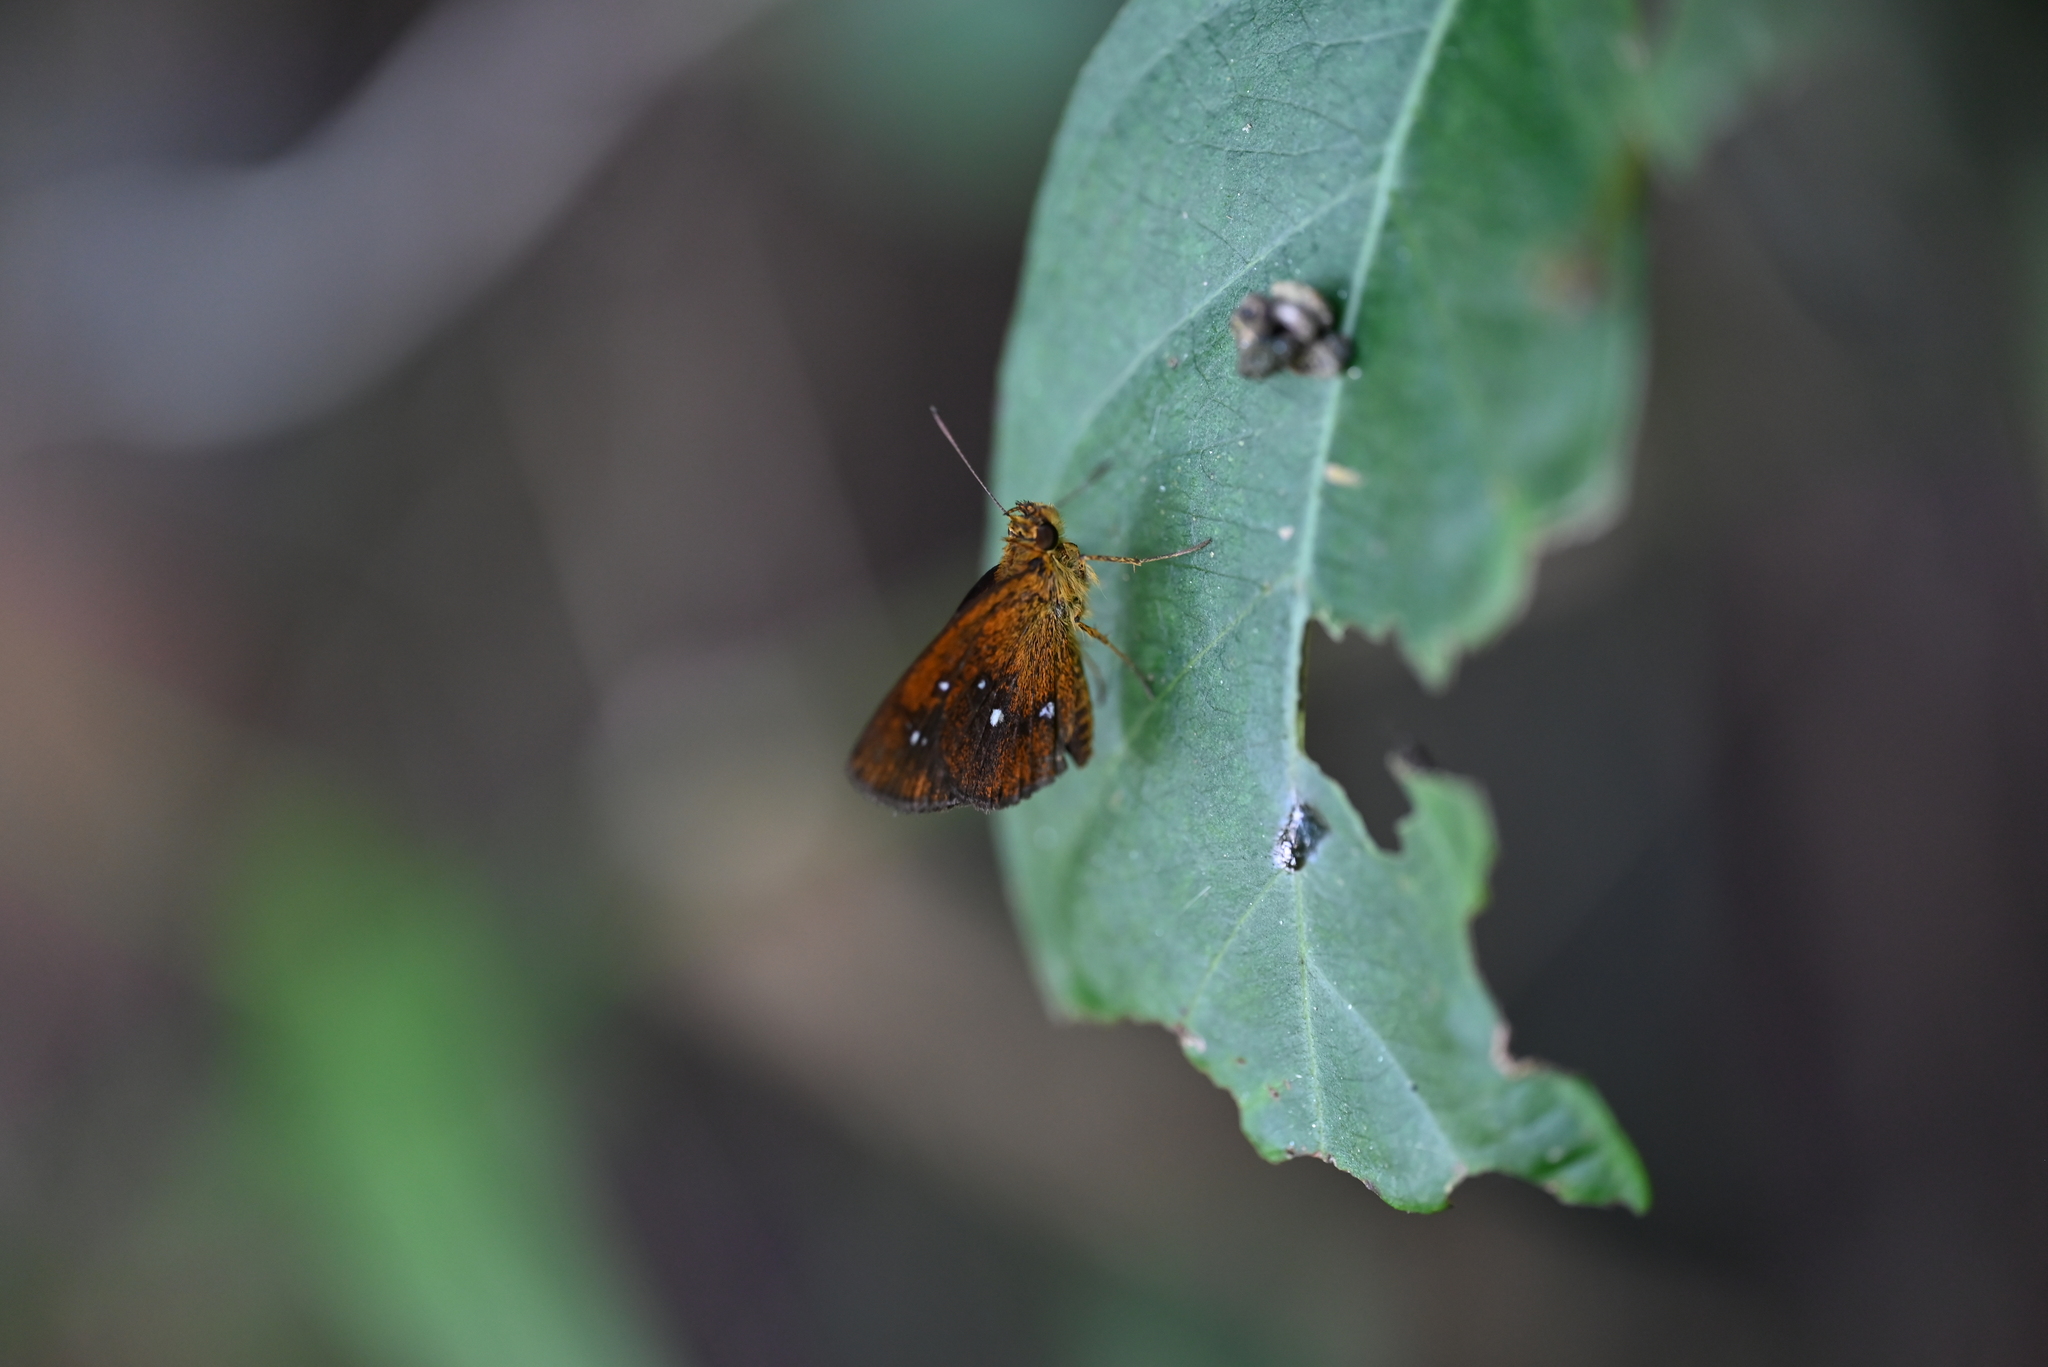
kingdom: Animalia
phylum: Arthropoda
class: Insecta
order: Lepidoptera
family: Hesperiidae
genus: Iambrix
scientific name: Iambrix salsala
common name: Chestnut bob
